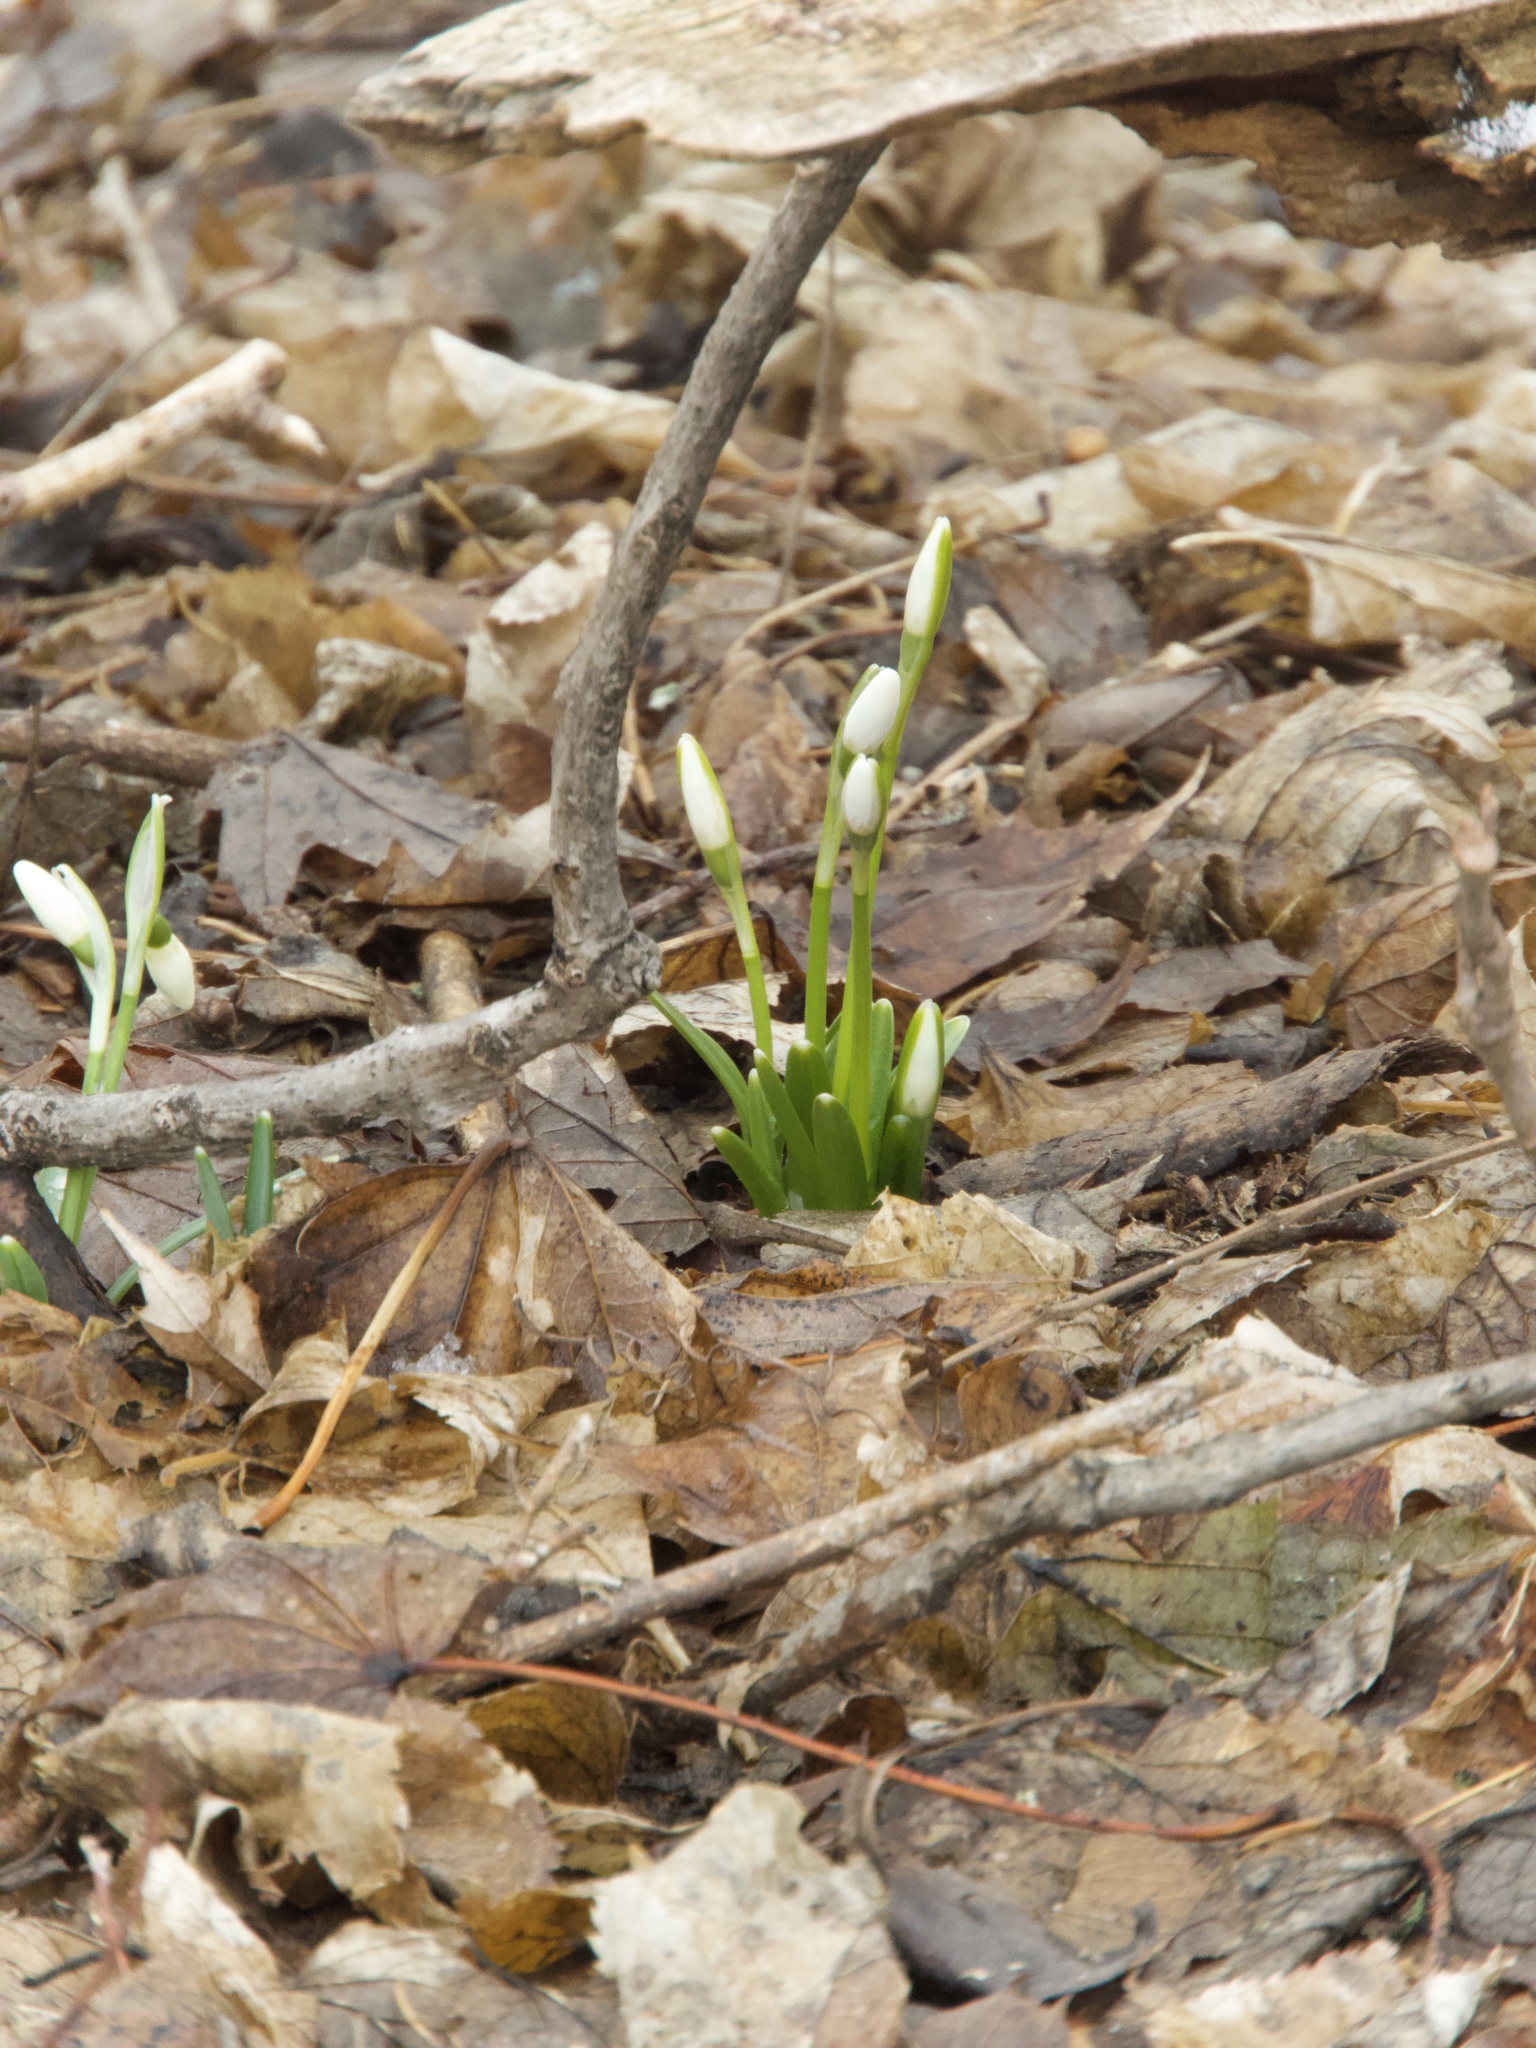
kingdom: Plantae
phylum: Tracheophyta
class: Liliopsida
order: Asparagales
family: Amaryllidaceae
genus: Galanthus
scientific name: Galanthus nivalis
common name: Snowdrop
